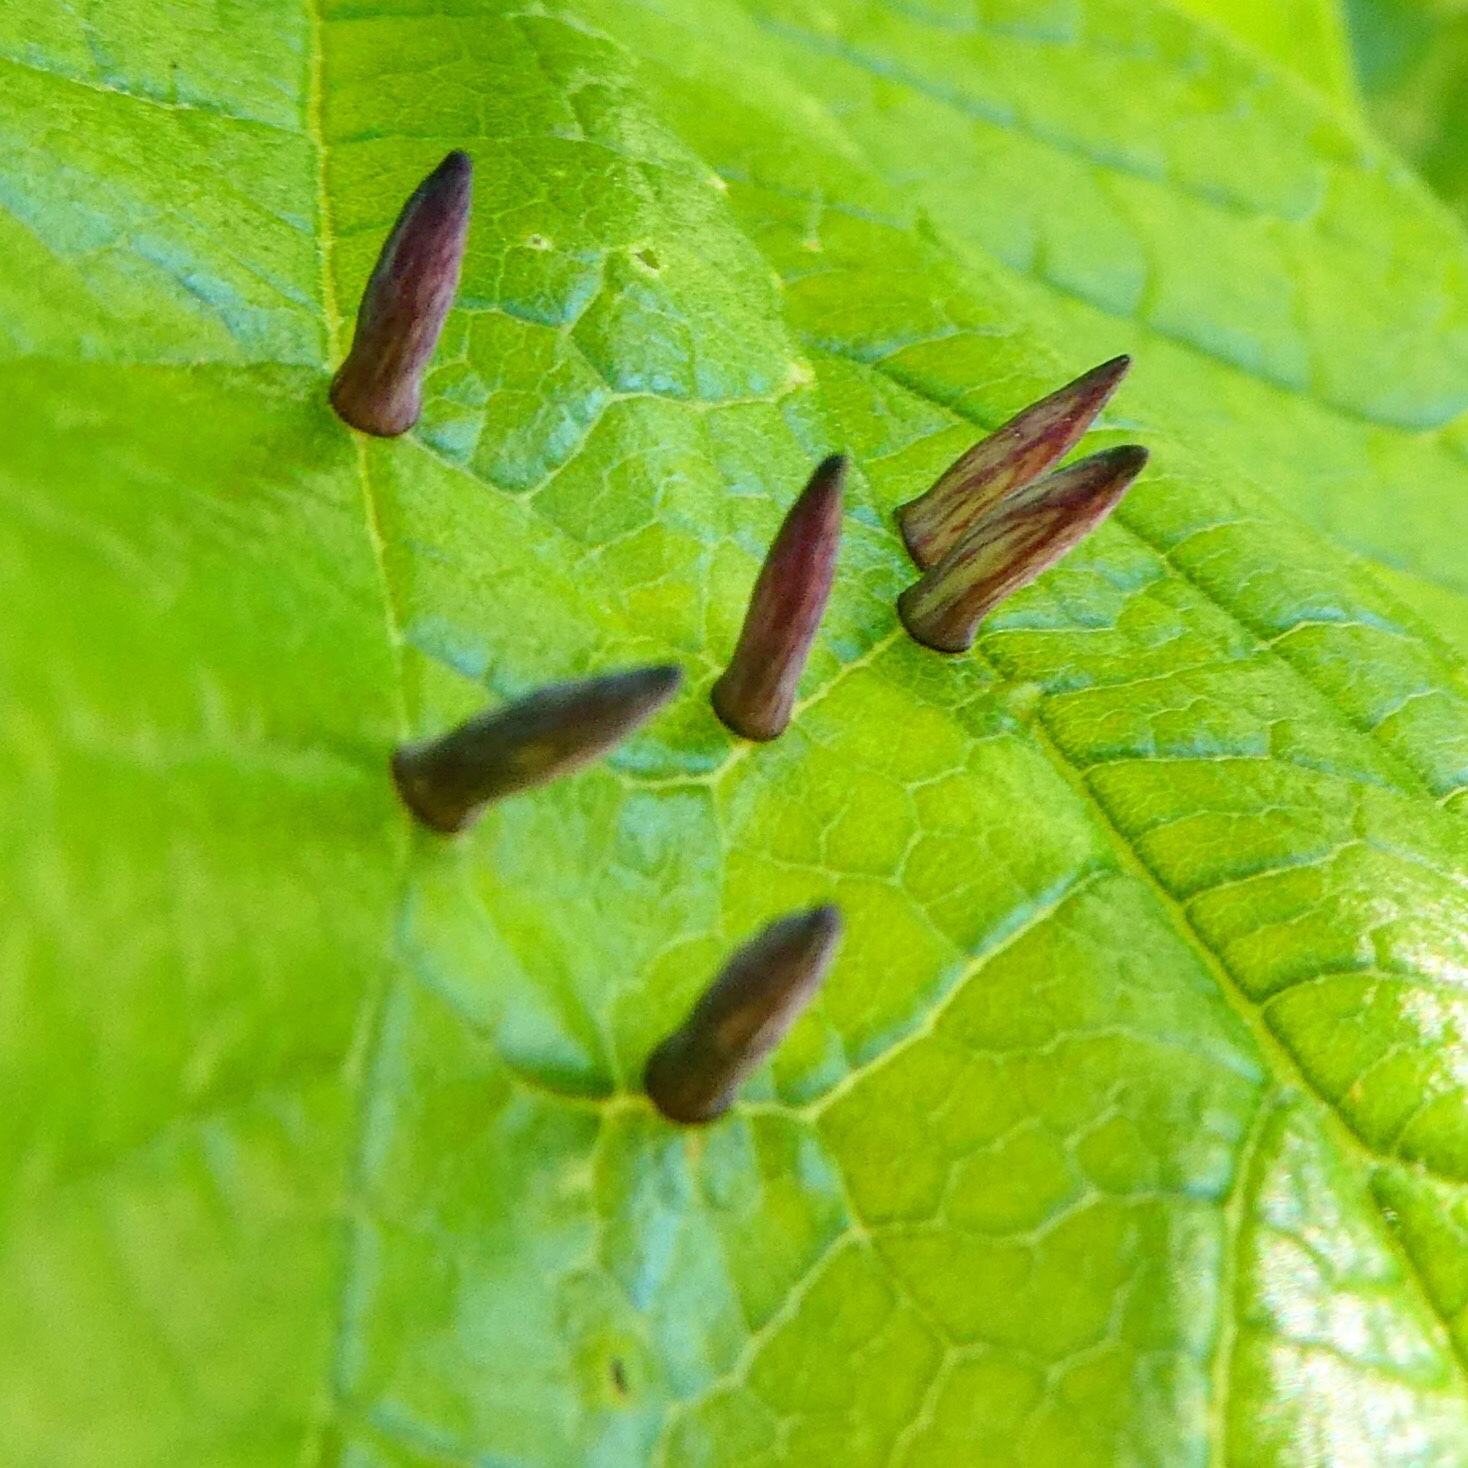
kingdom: Animalia
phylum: Arthropoda
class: Insecta
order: Diptera
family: Cecidomyiidae
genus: Celticecis
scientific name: Celticecis
